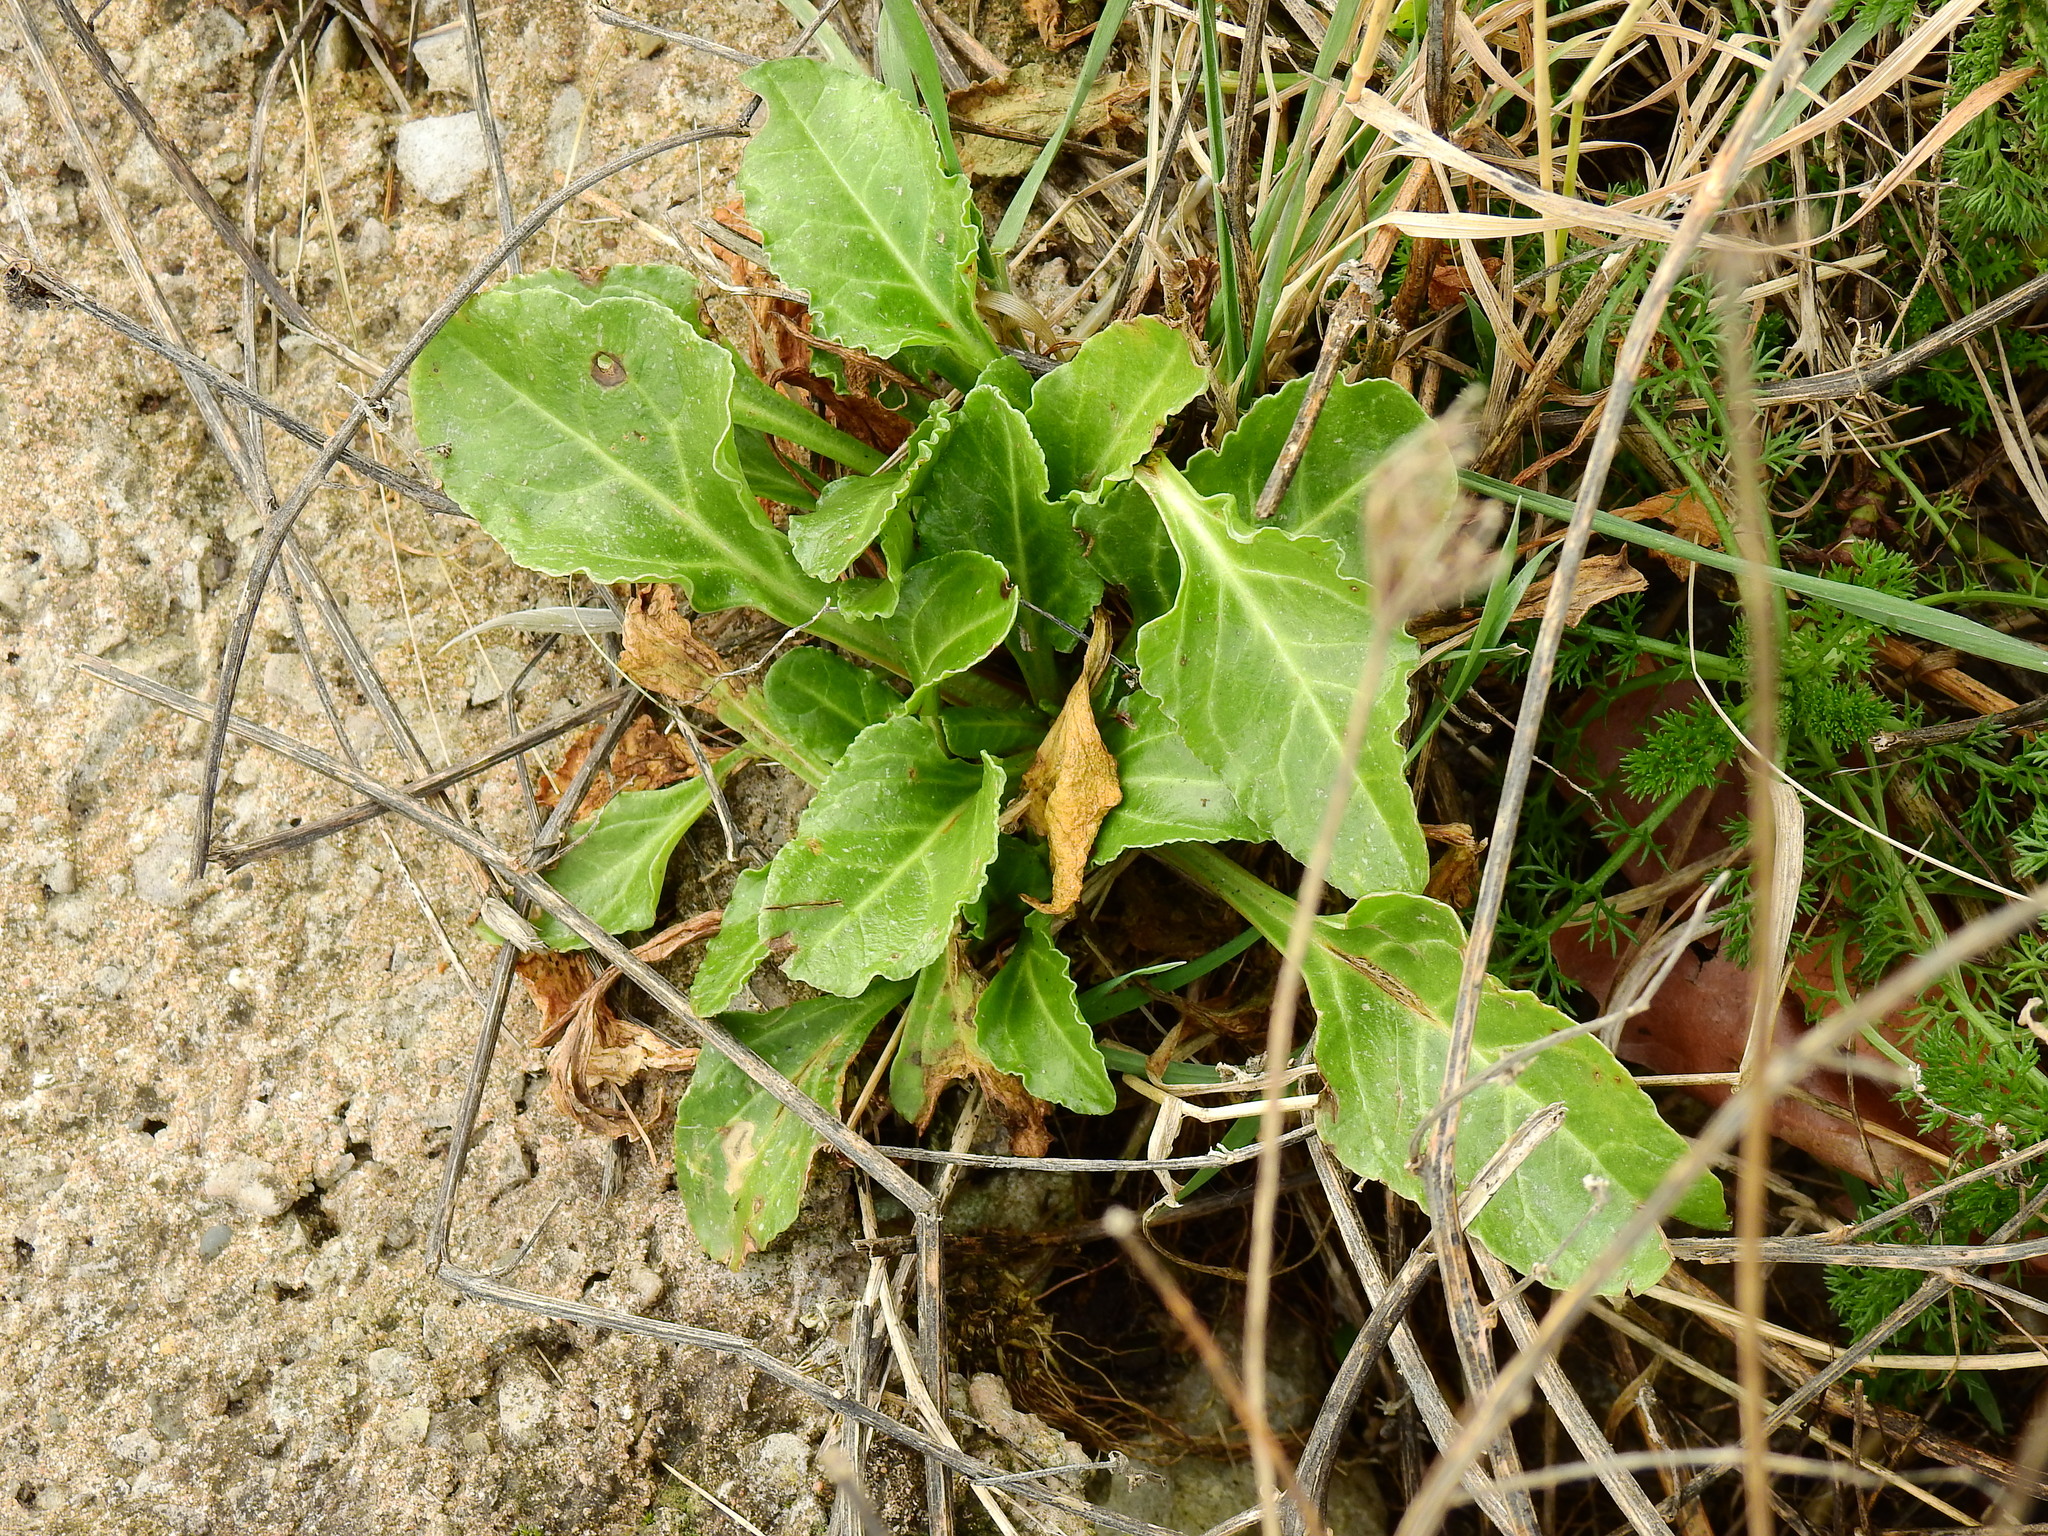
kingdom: Plantae
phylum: Tracheophyta
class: Magnoliopsida
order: Caryophyllales
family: Amaranthaceae
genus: Beta
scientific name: Beta vulgaris
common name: Beet
